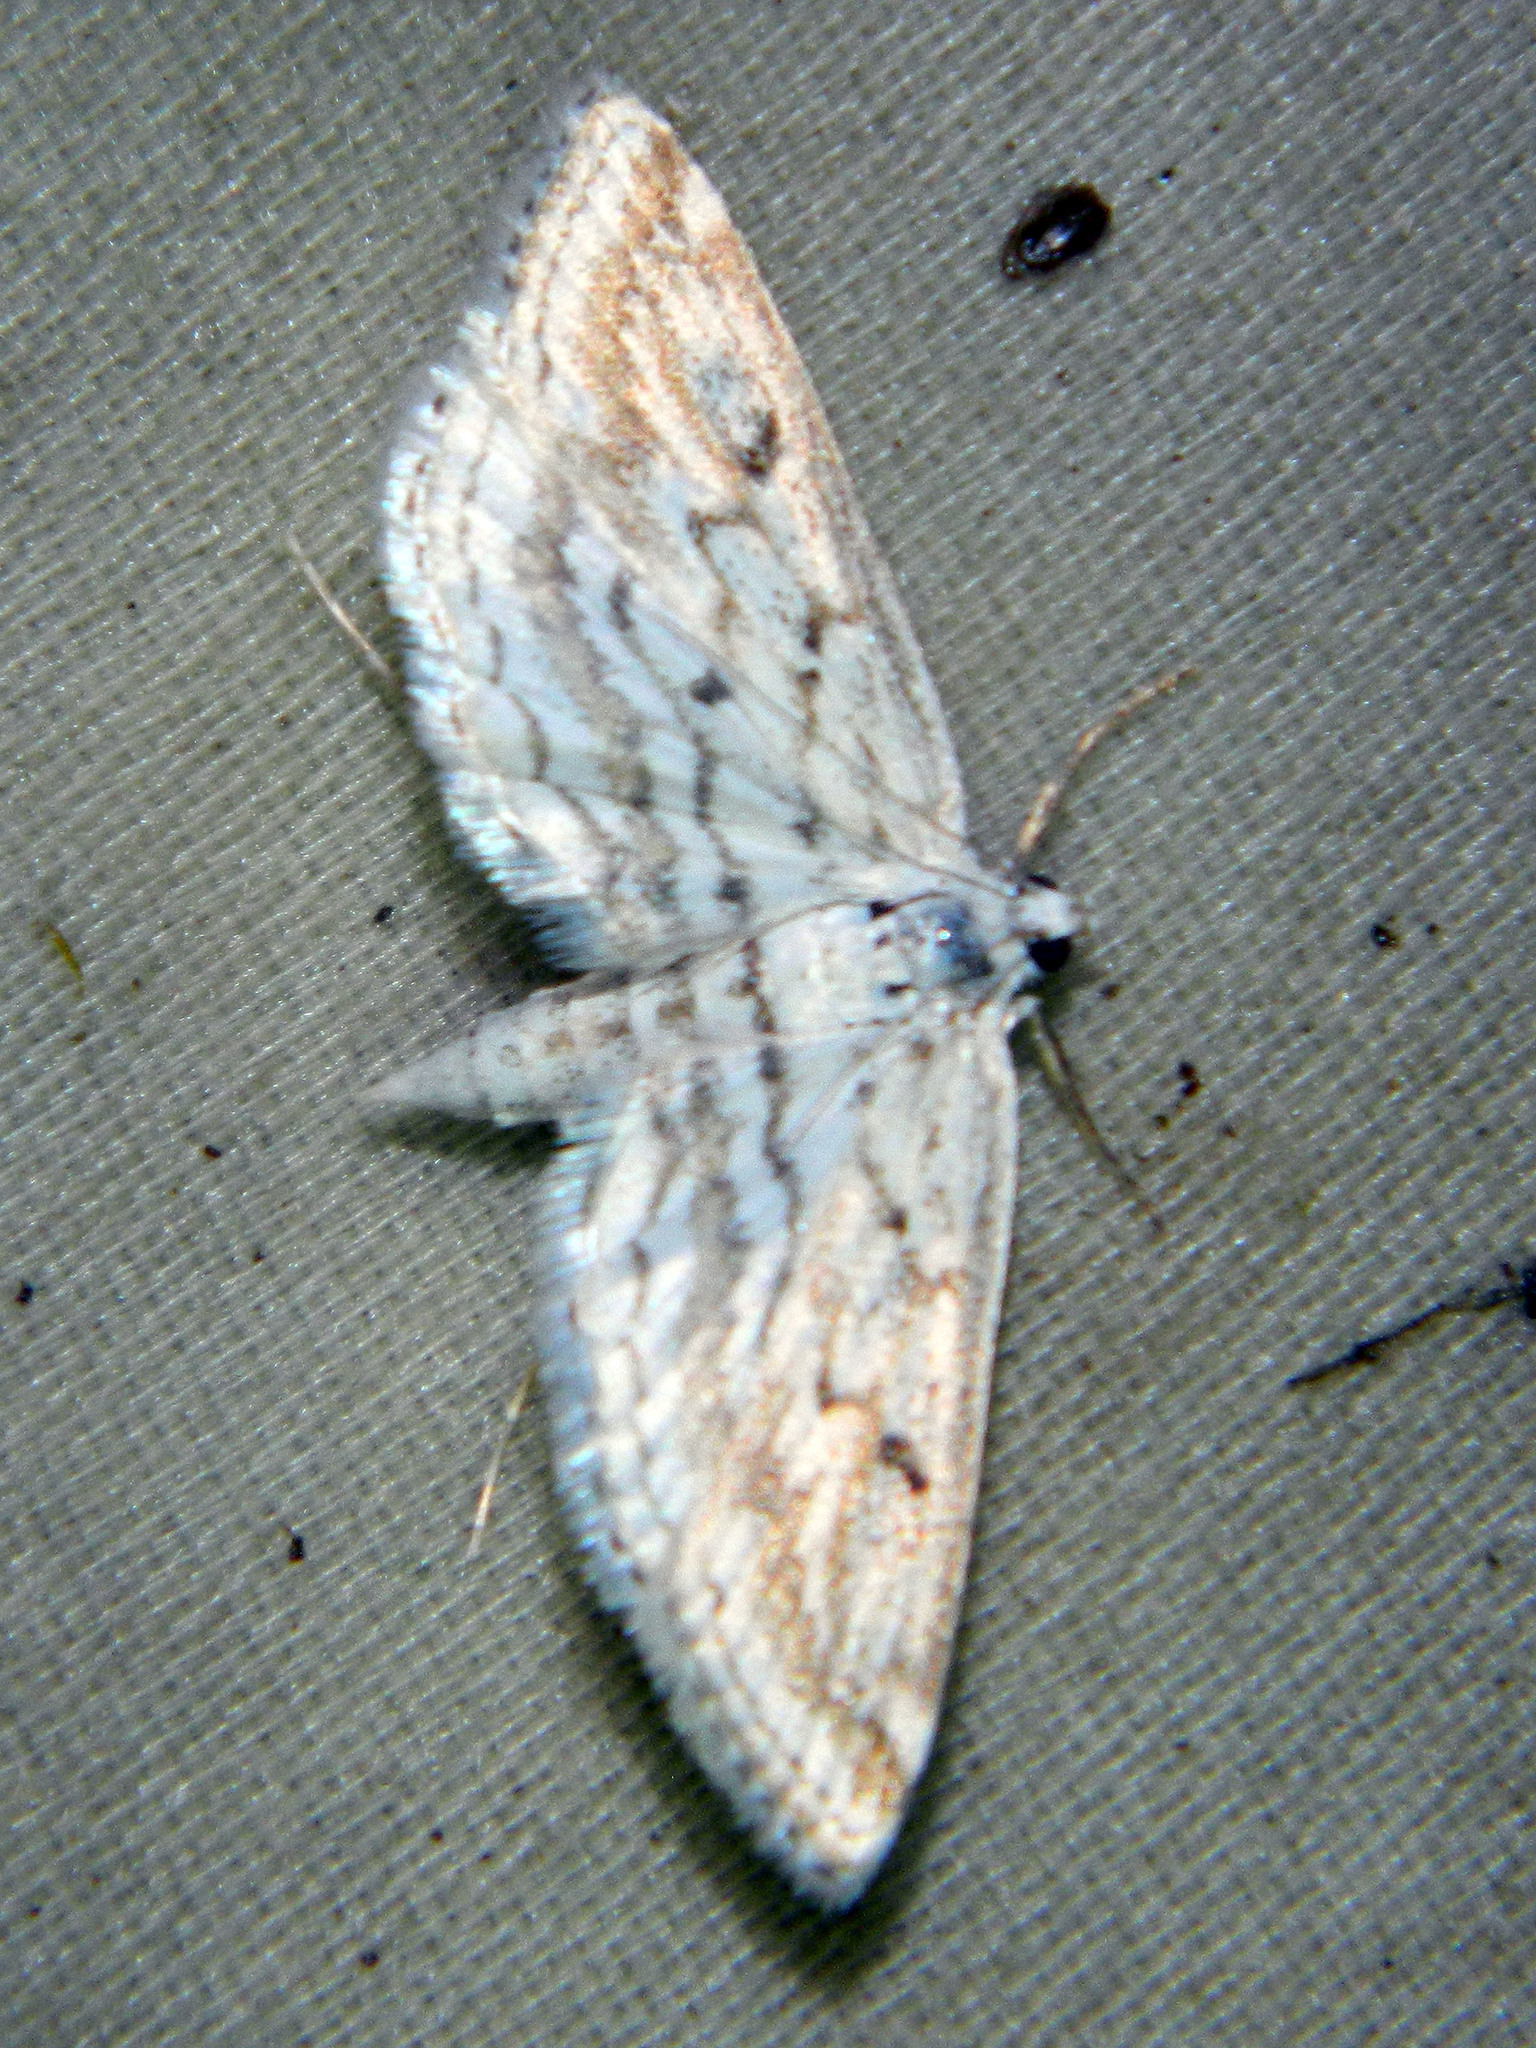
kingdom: Animalia
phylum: Arthropoda
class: Insecta
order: Lepidoptera
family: Crambidae
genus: Parapoynx
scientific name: Parapoynx allionealis
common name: Bladderwort casemaker
